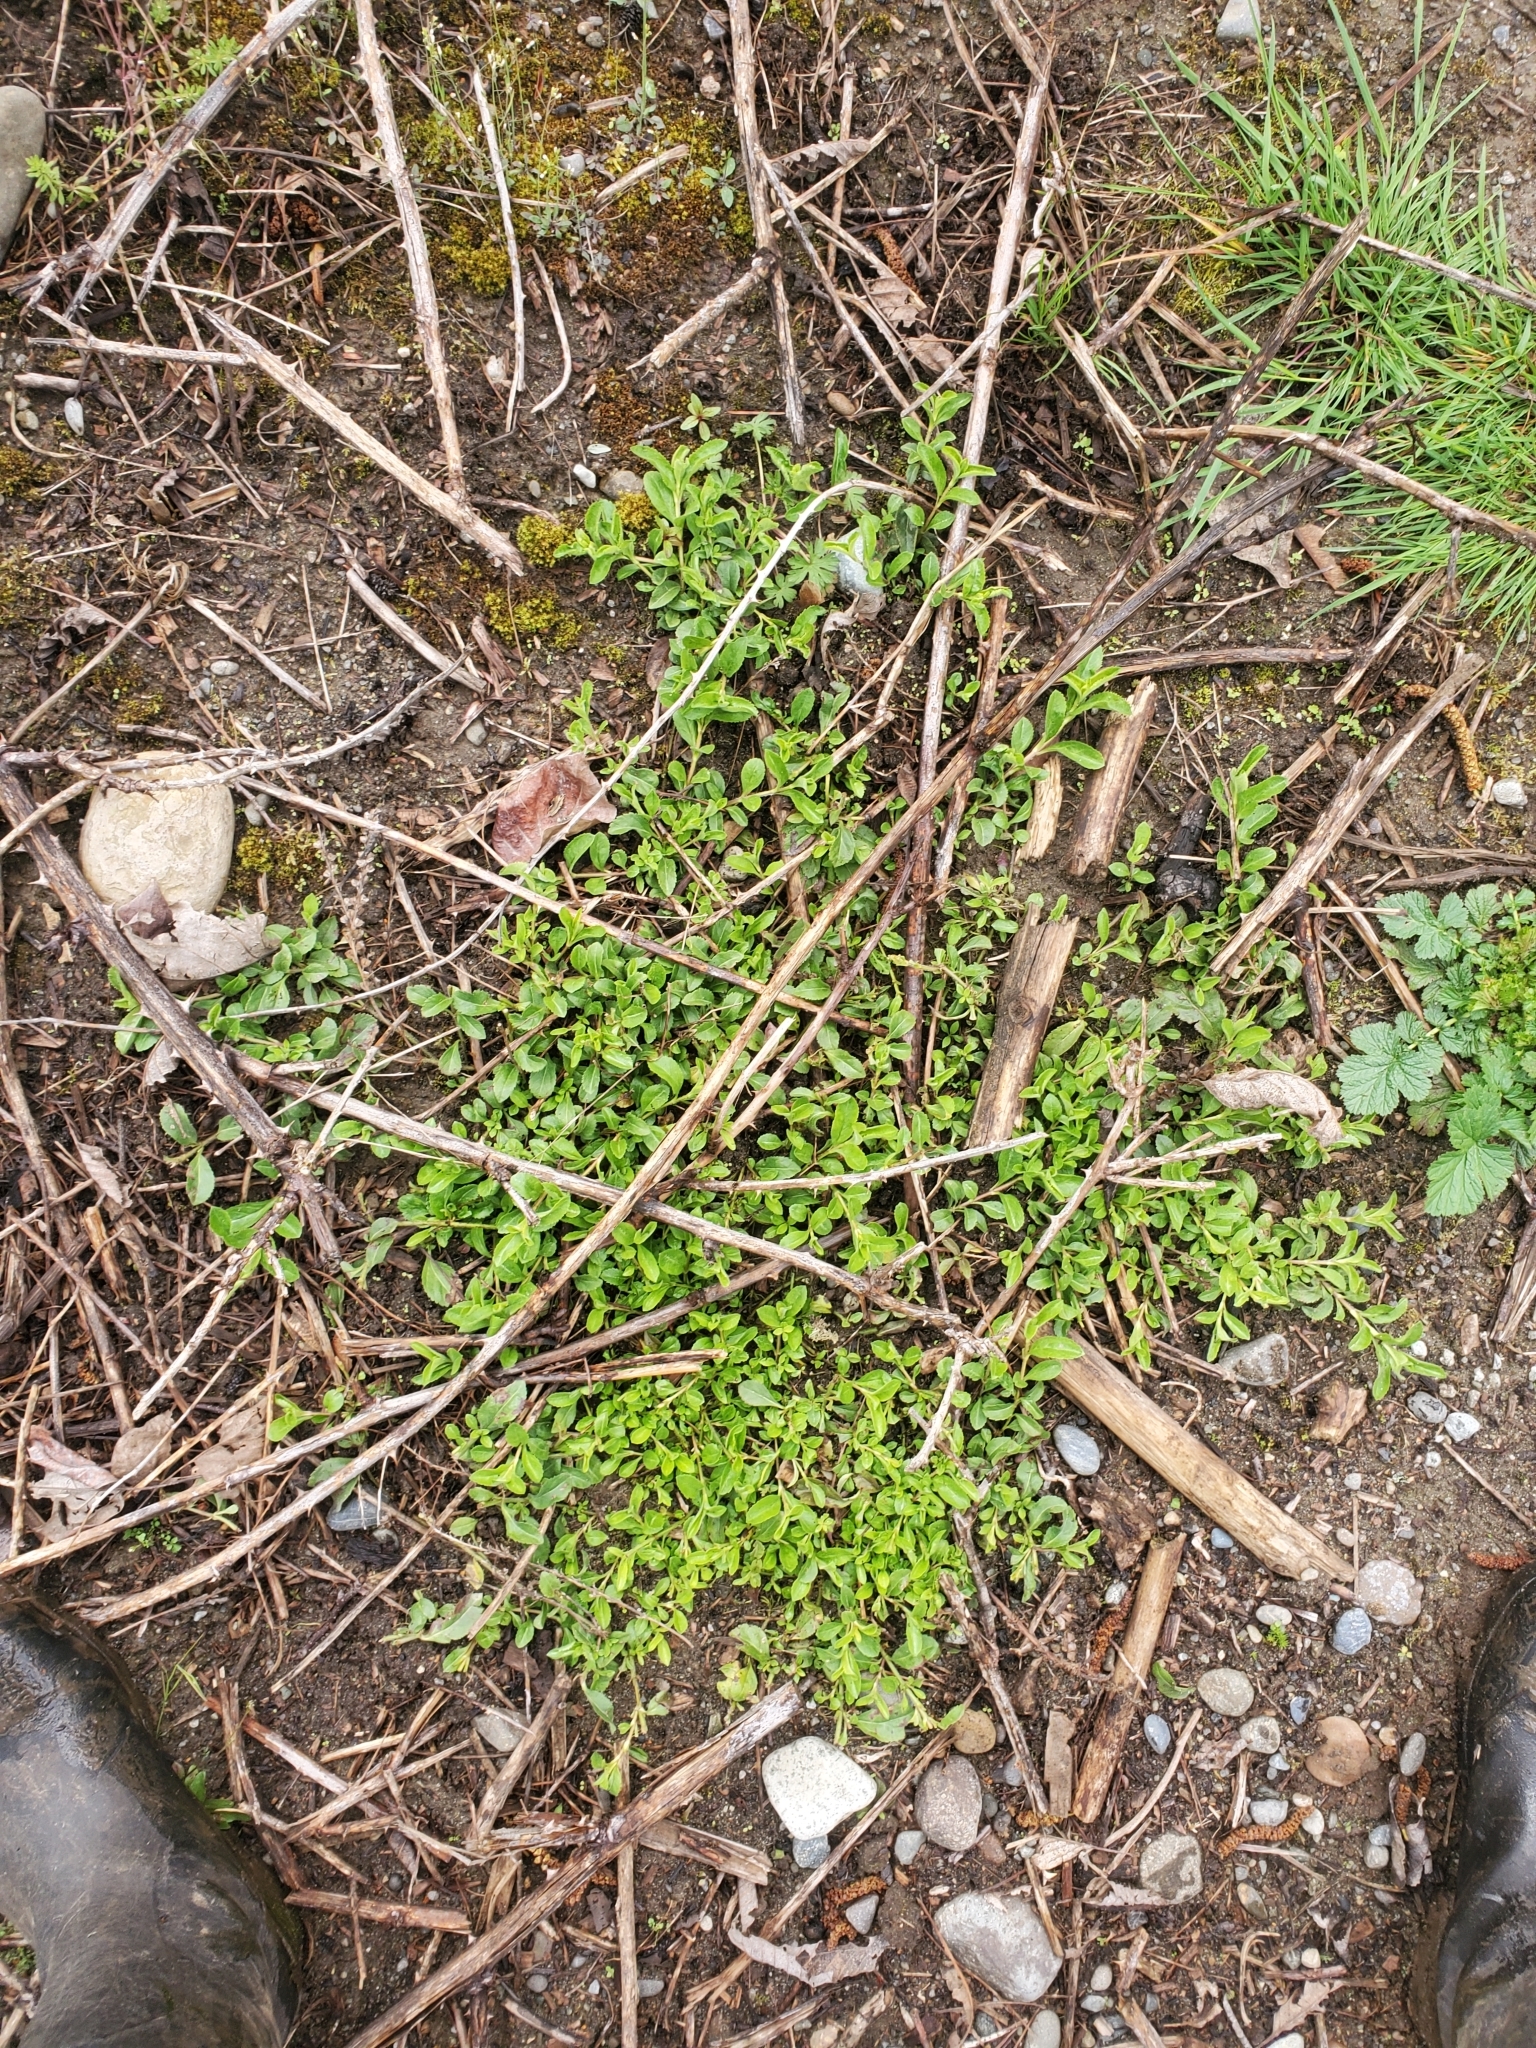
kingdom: Plantae
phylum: Tracheophyta
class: Magnoliopsida
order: Lamiales
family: Plantaginaceae
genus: Veronica
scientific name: Veronica officinalis
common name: Common speedwell
